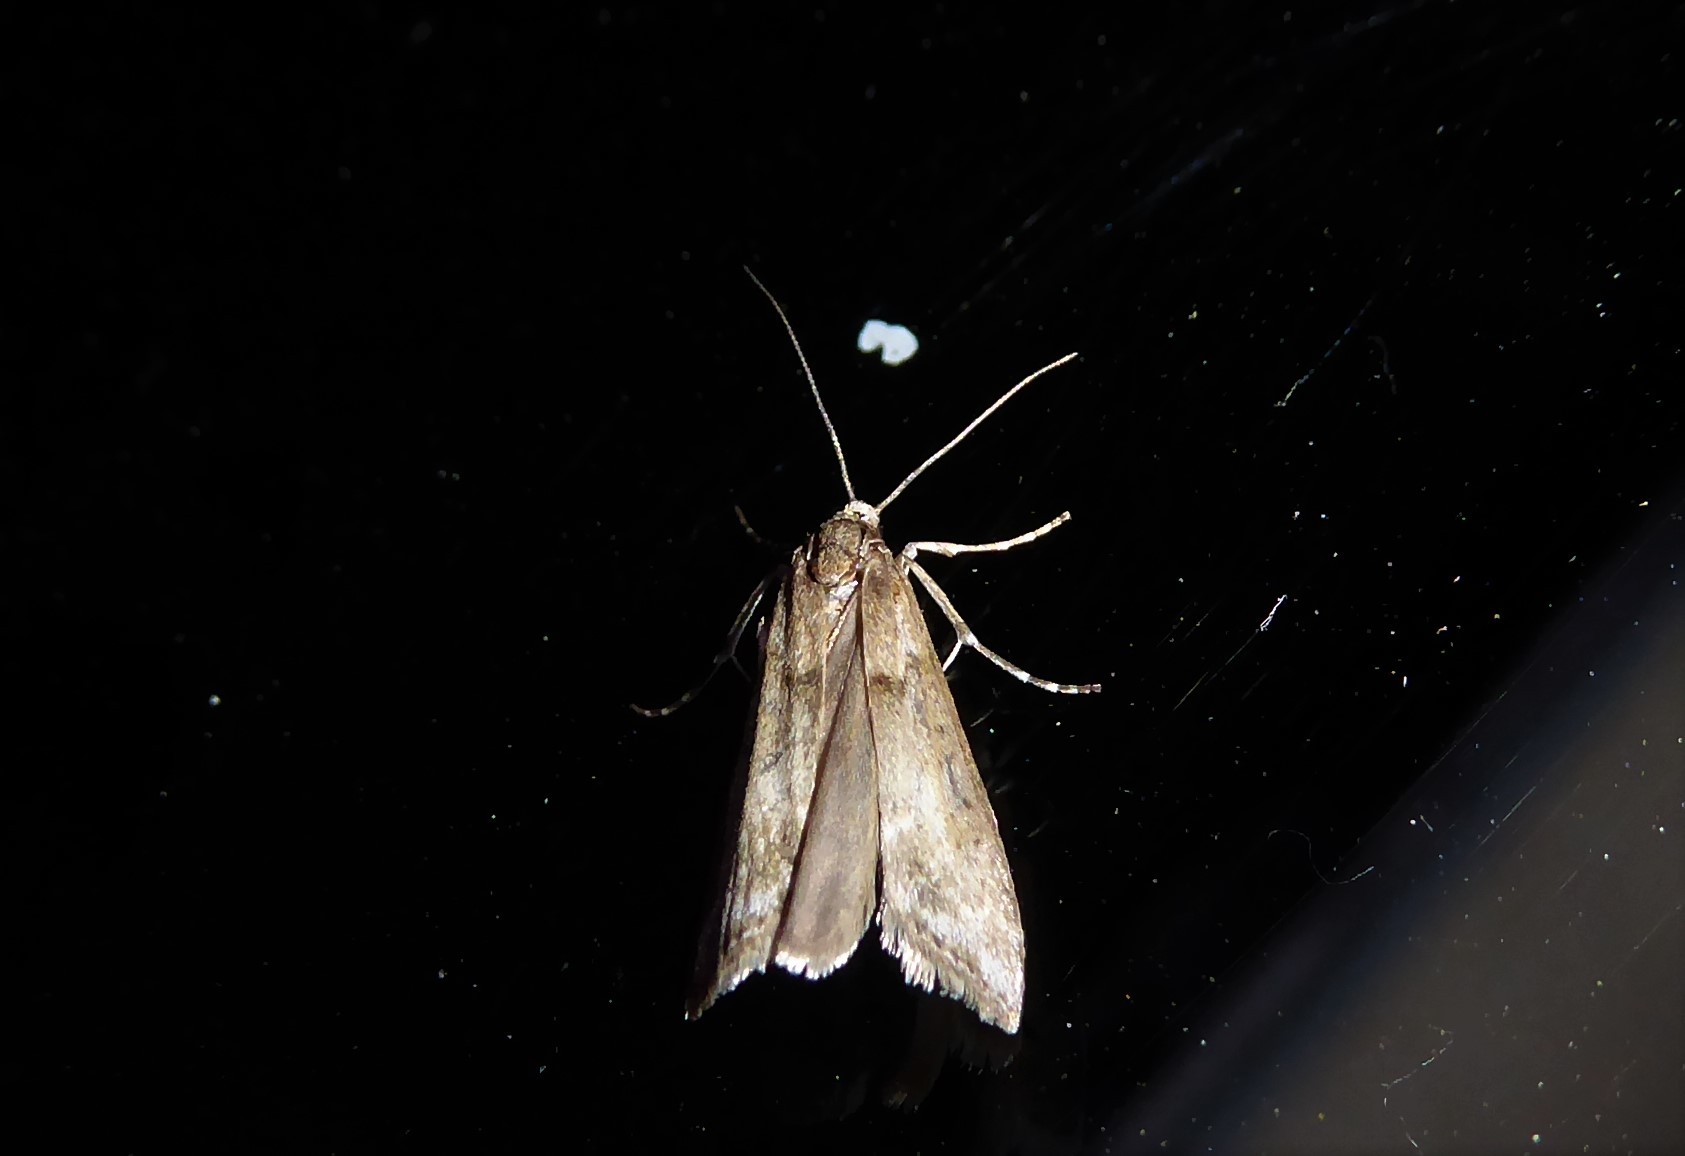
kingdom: Animalia
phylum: Arthropoda
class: Insecta
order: Lepidoptera
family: Crambidae
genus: Eudonia
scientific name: Eudonia leptalea
